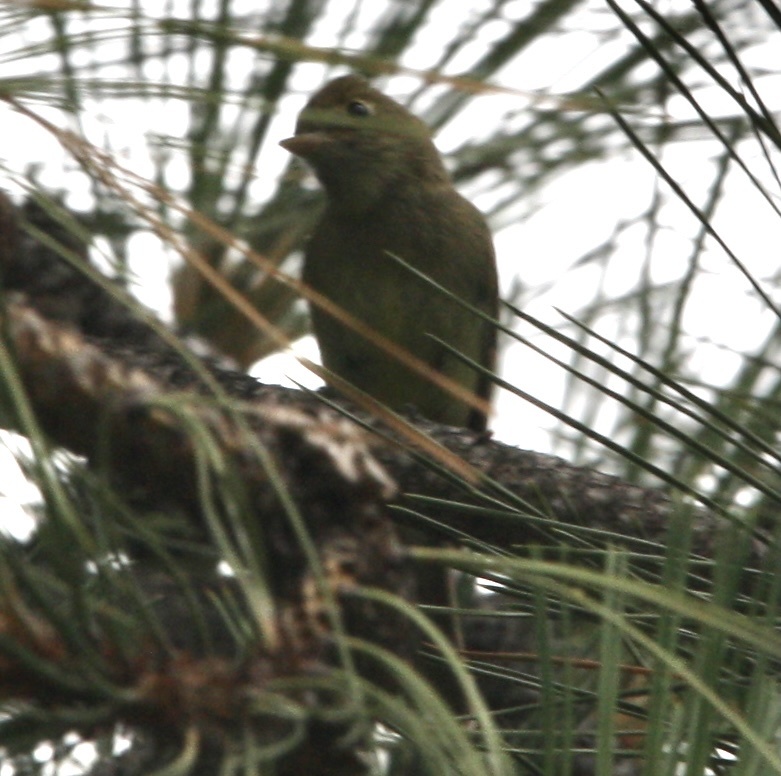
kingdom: Animalia
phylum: Chordata
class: Aves
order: Passeriformes
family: Tyrannidae
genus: Empidonax
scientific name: Empidonax difficilis
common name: Pacific-slope flycatcher
